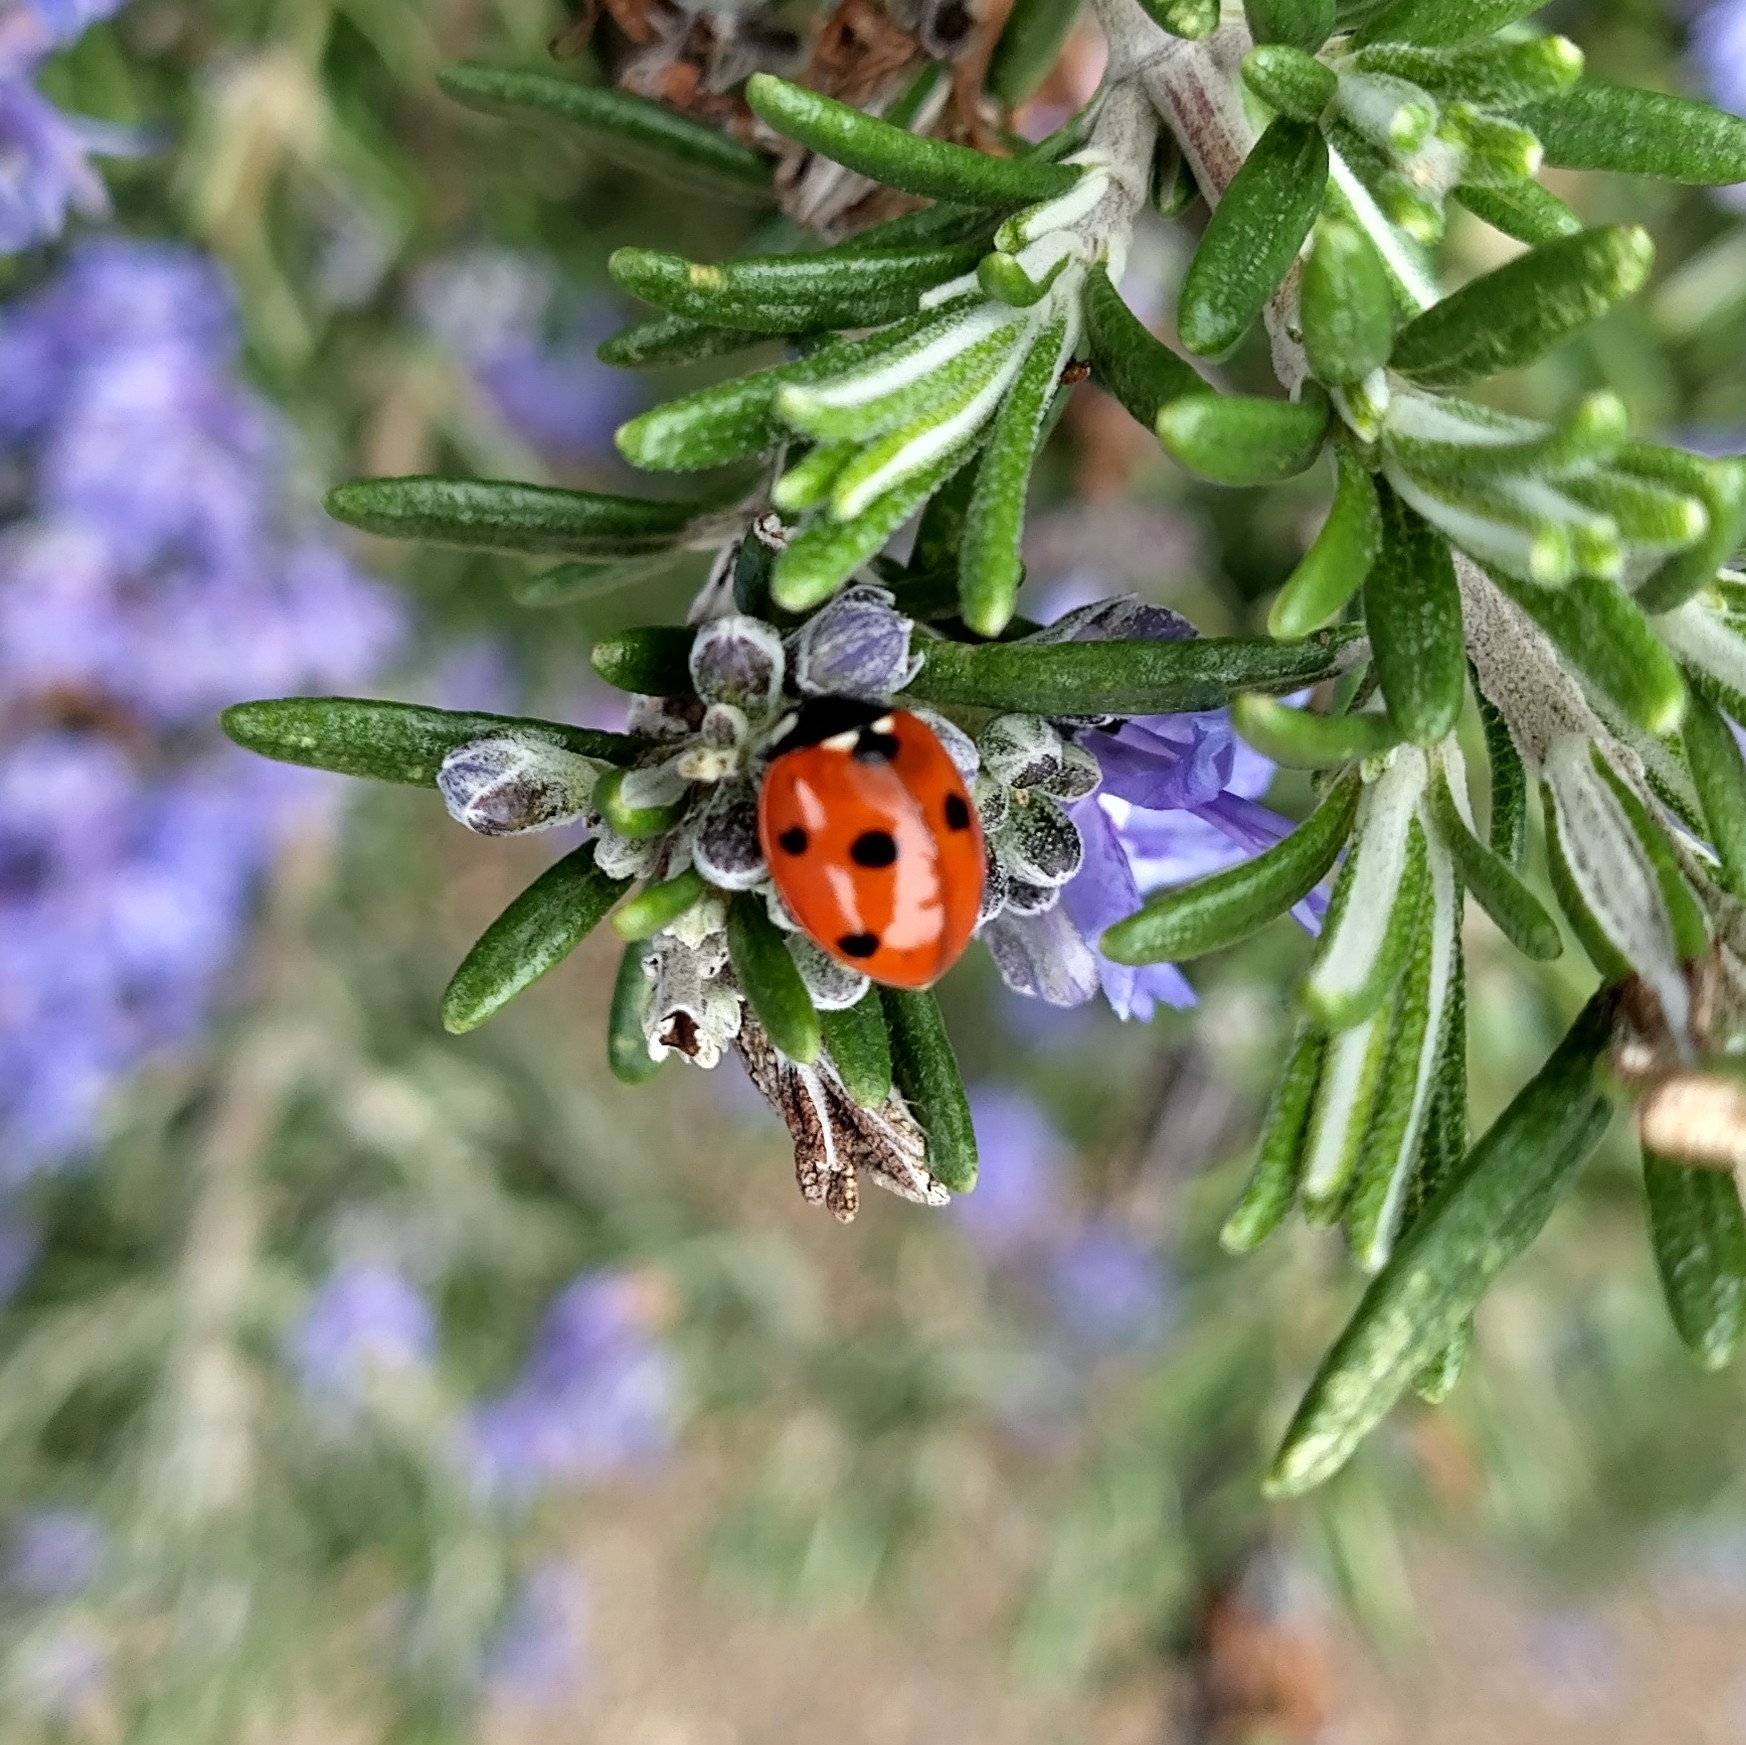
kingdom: Animalia
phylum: Arthropoda
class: Insecta
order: Coleoptera
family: Coccinellidae
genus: Coccinella
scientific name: Coccinella septempunctata
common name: Sevenspotted lady beetle
